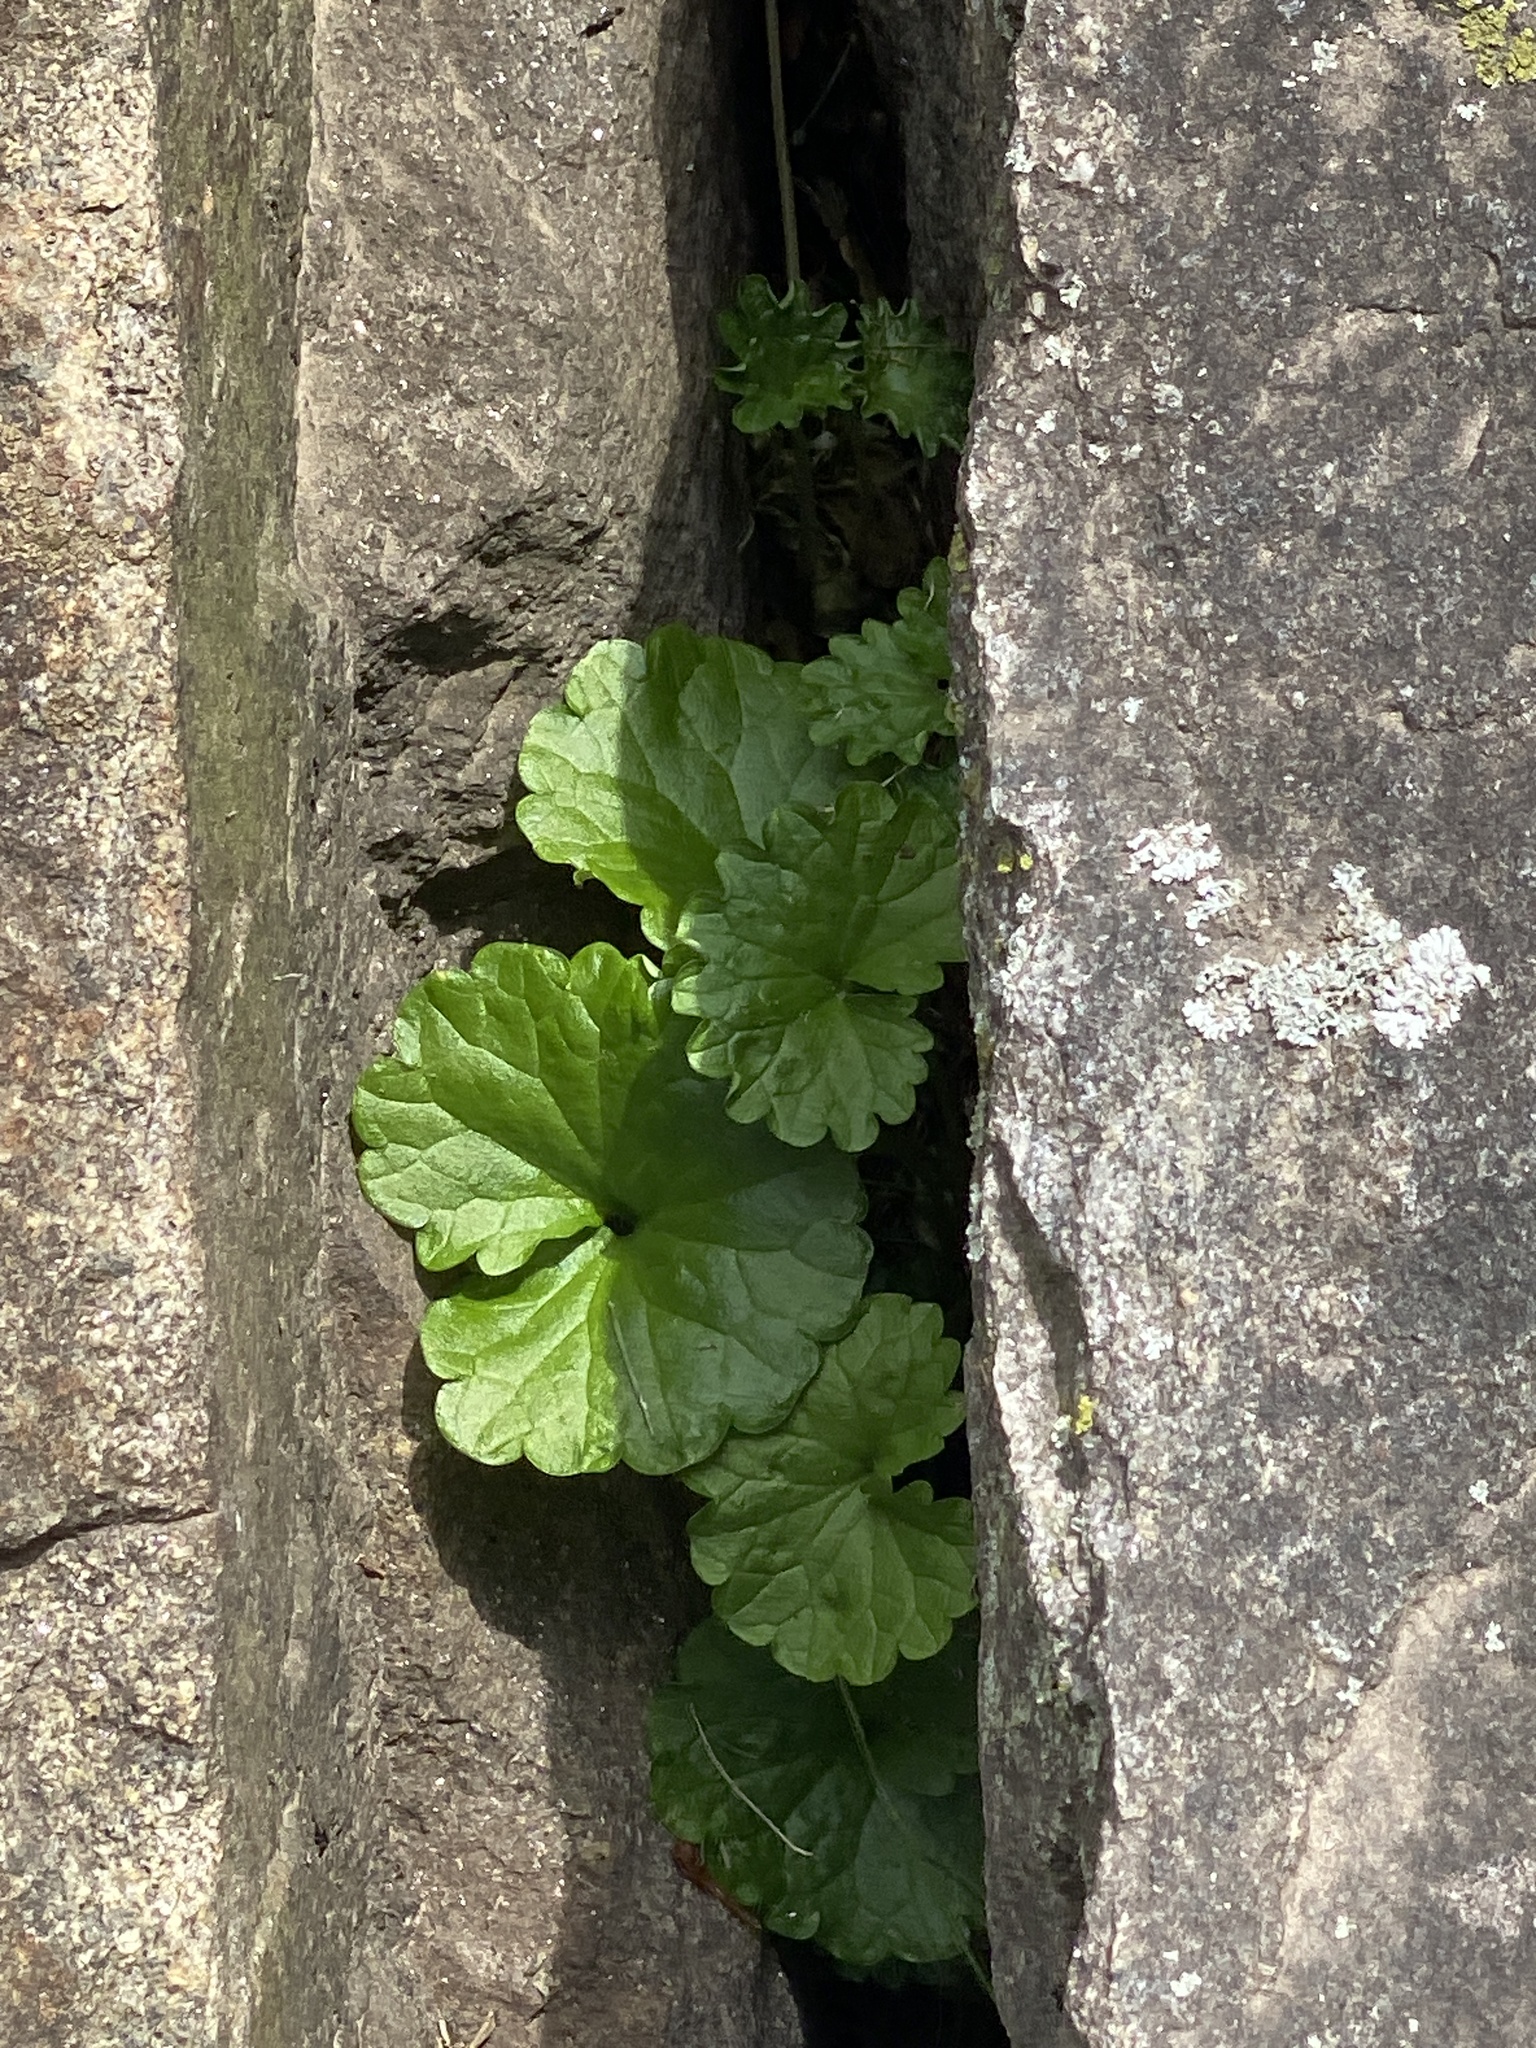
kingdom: Plantae
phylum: Tracheophyta
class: Magnoliopsida
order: Lamiales
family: Lamiaceae
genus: Glechoma
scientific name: Glechoma hederacea
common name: Ground ivy
